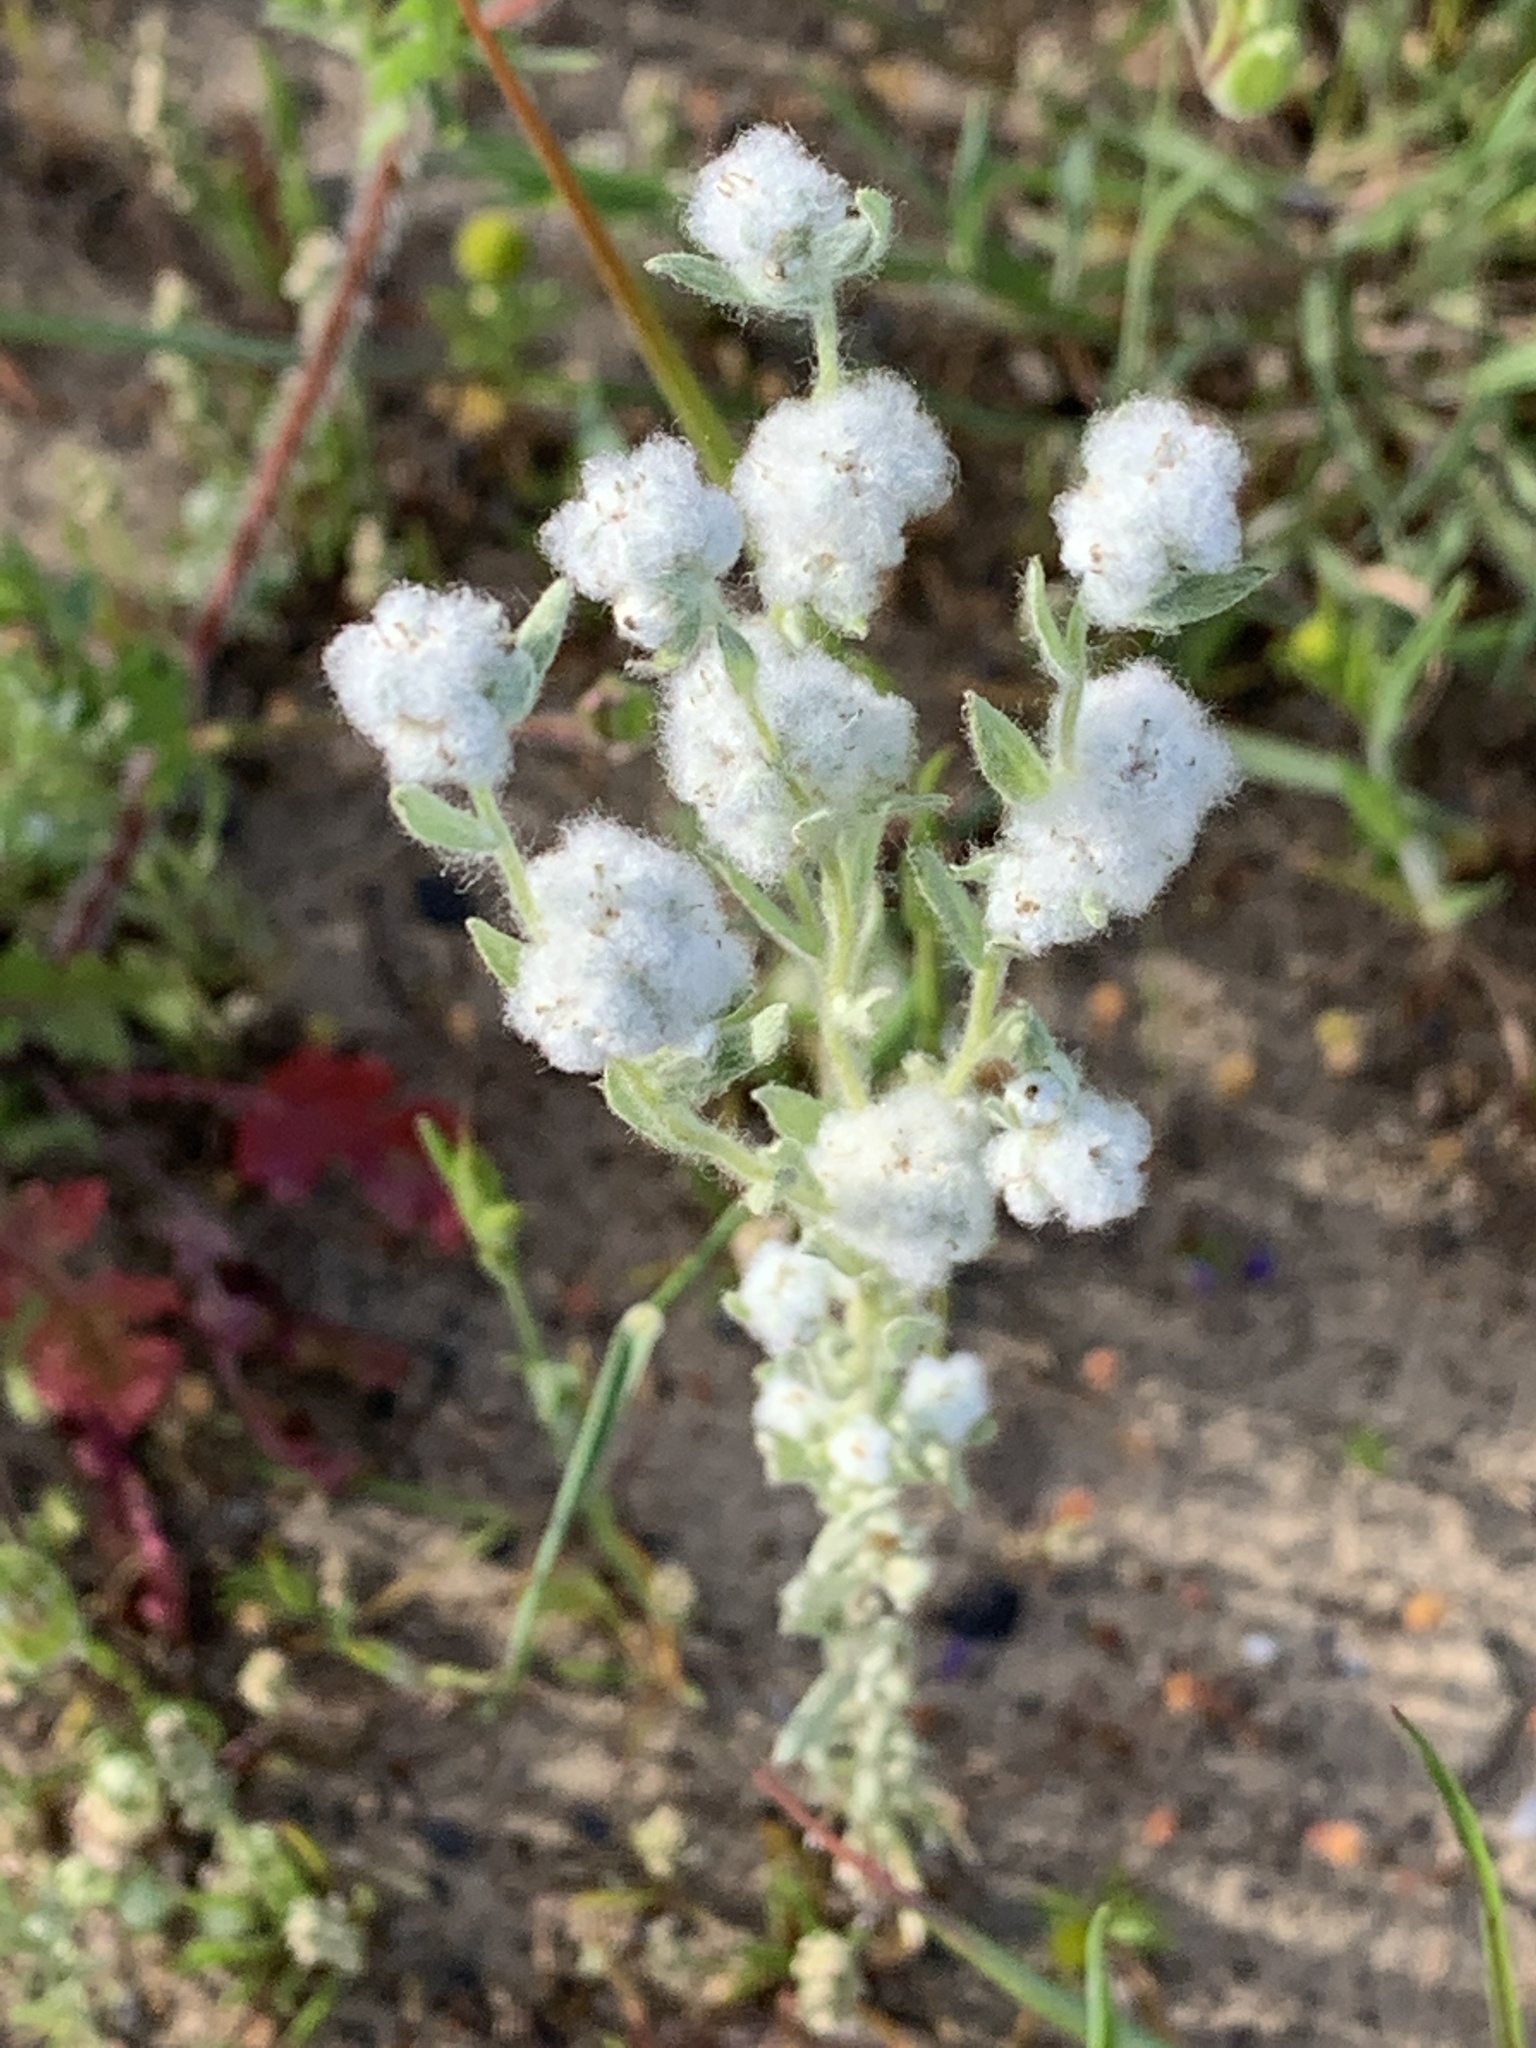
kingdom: Plantae
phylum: Tracheophyta
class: Magnoliopsida
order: Asterales
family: Asteraceae
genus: Bombycilaena
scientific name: Bombycilaena californica
